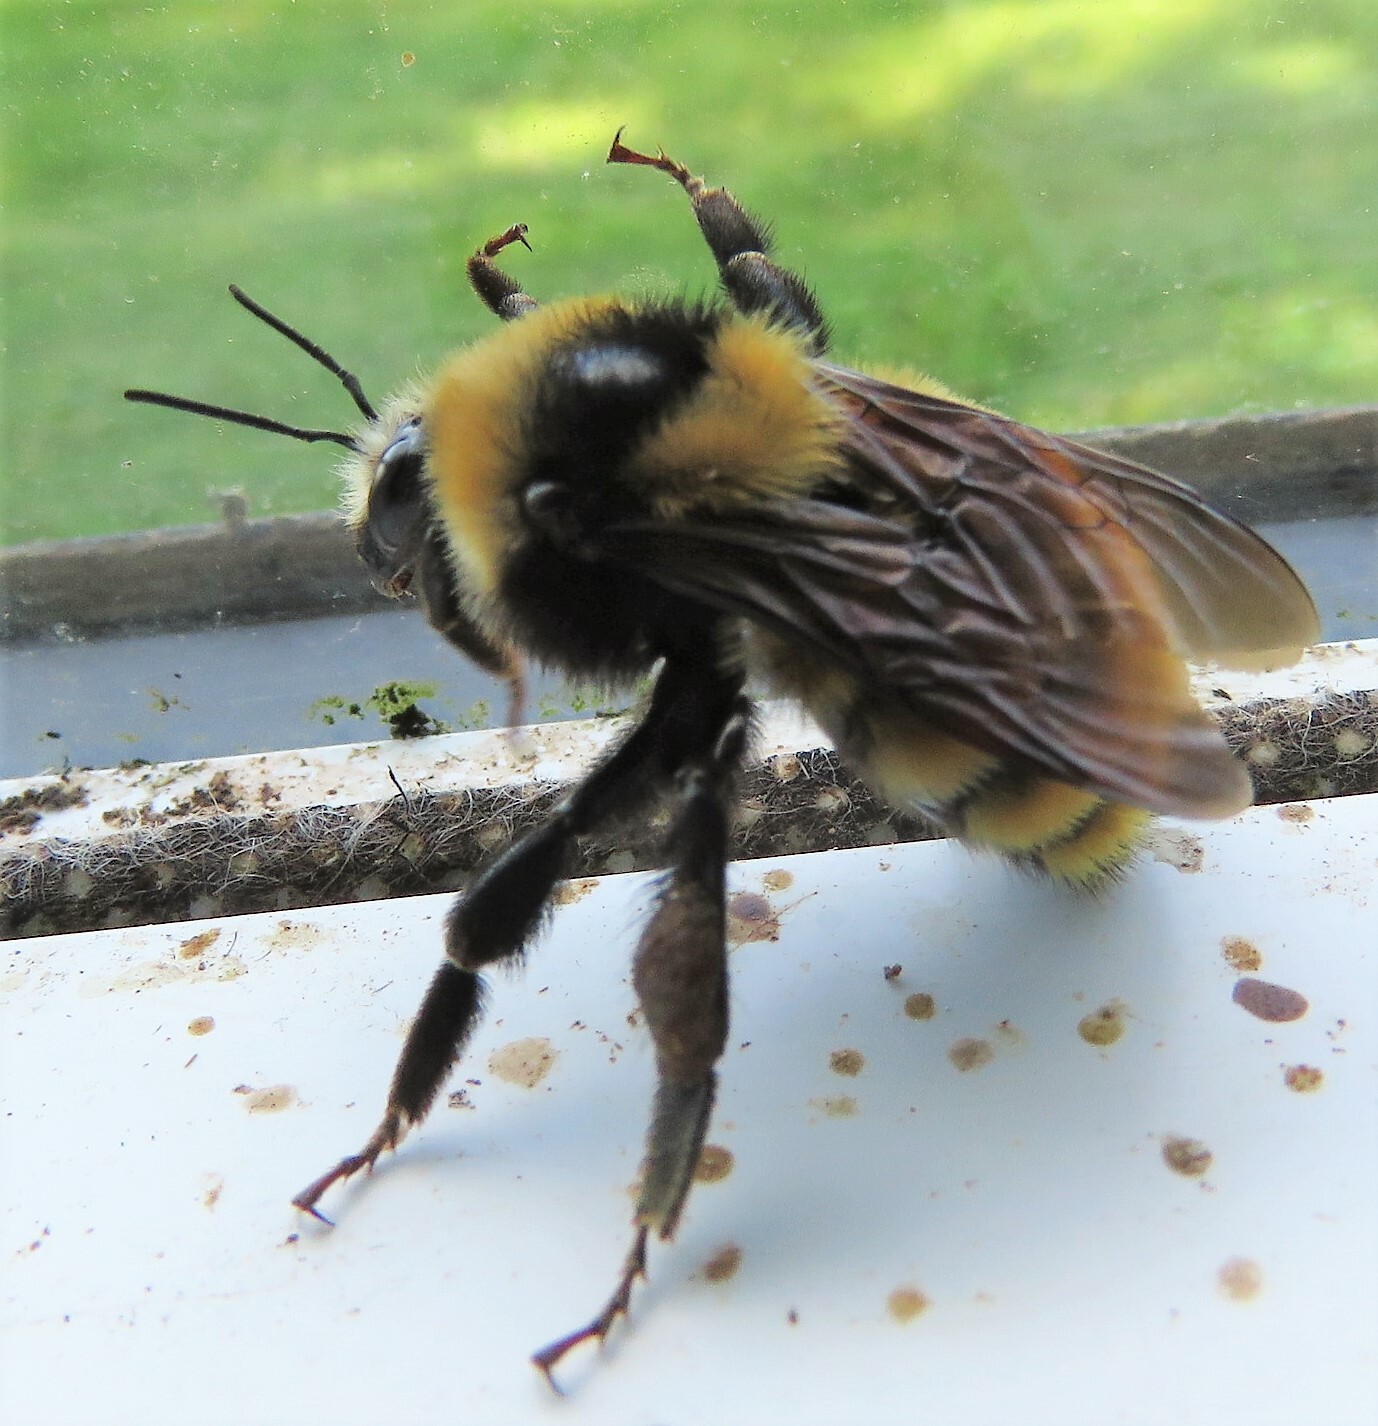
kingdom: Animalia
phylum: Arthropoda
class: Insecta
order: Hymenoptera
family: Apidae
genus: Bombus
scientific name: Bombus borealis
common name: Northern amber bumble bee
